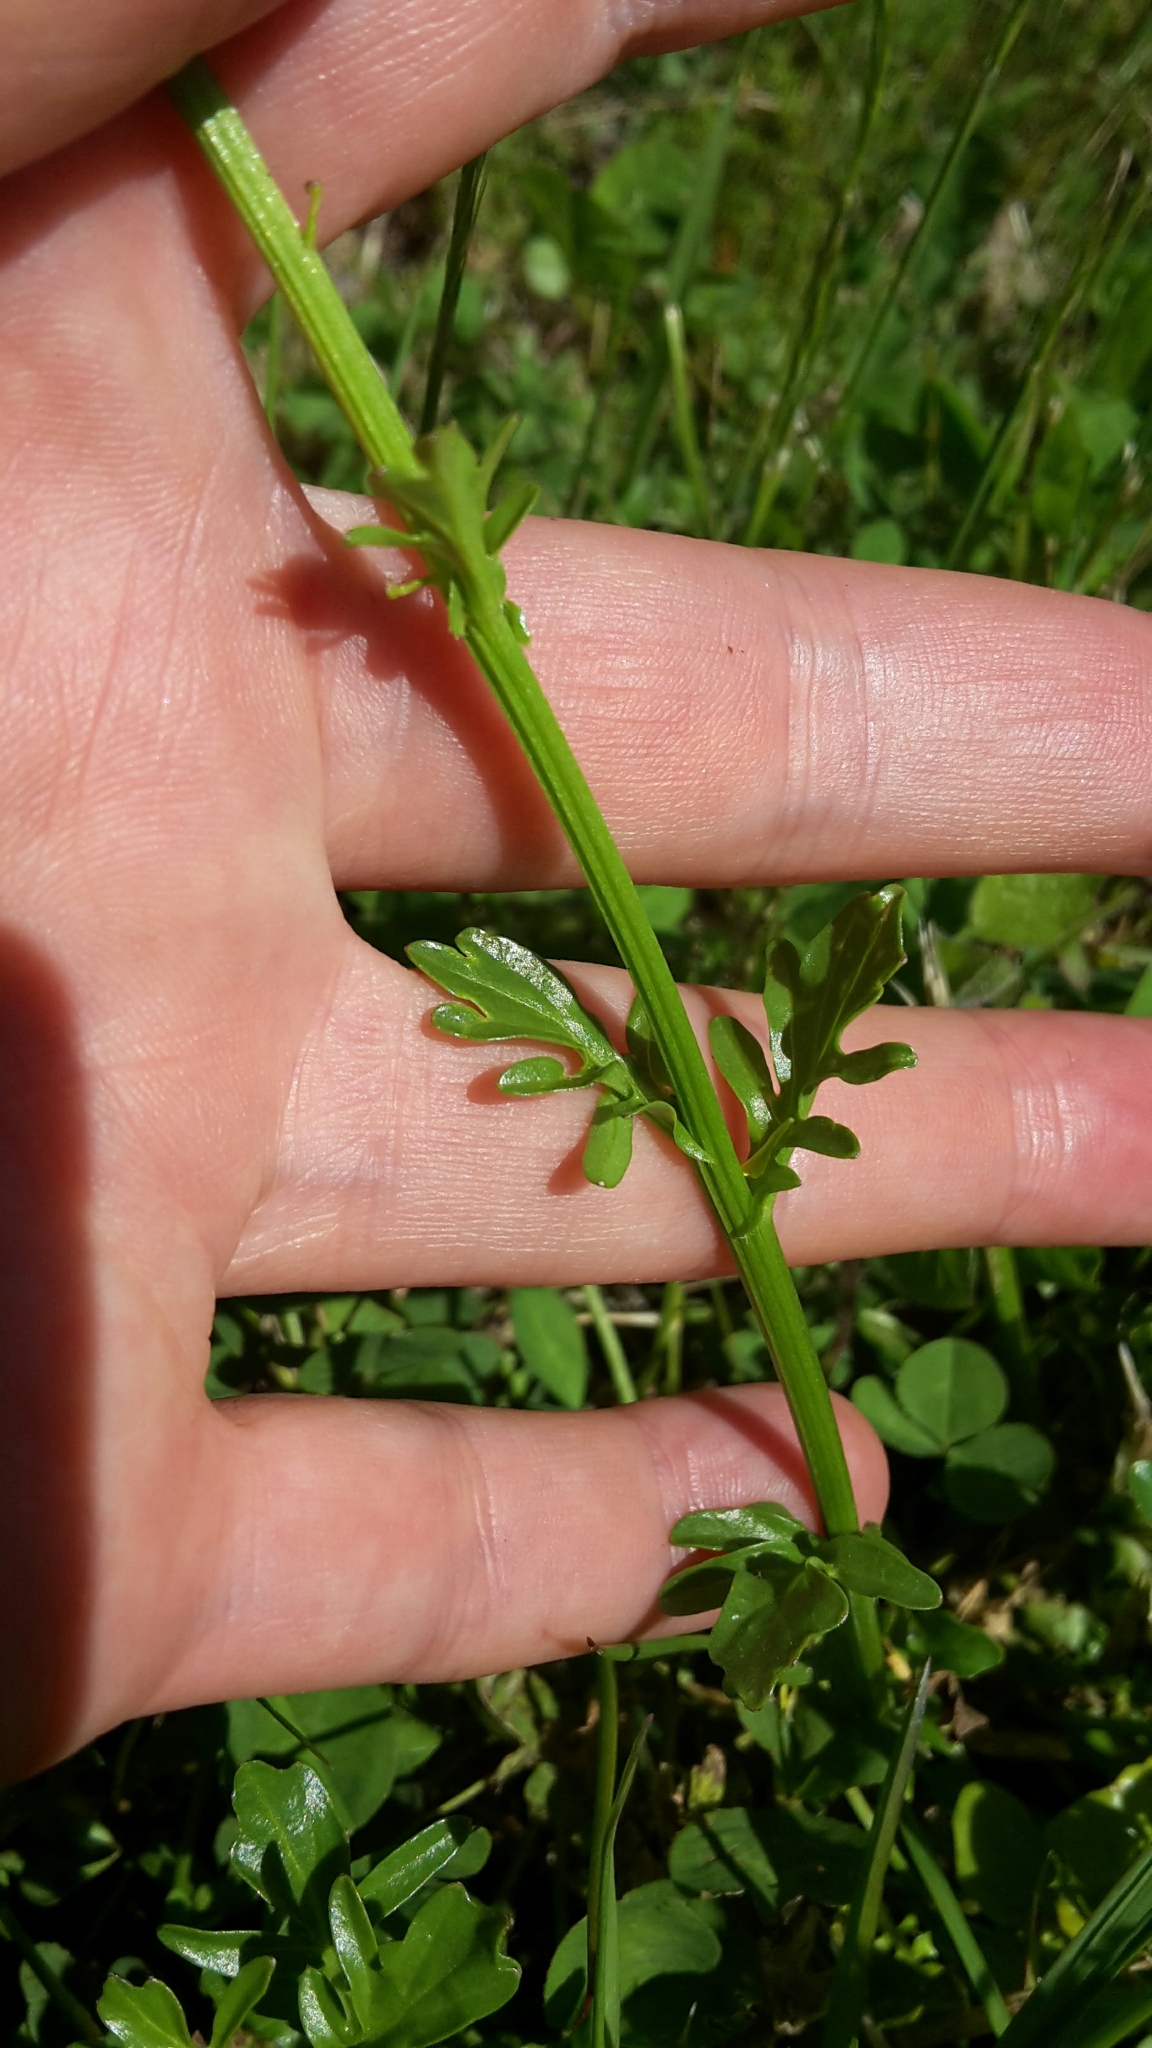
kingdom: Plantae
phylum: Tracheophyta
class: Magnoliopsida
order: Brassicales
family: Brassicaceae
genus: Barbarea
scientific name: Barbarea intermedia
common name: Medium-flowered winter-cress
